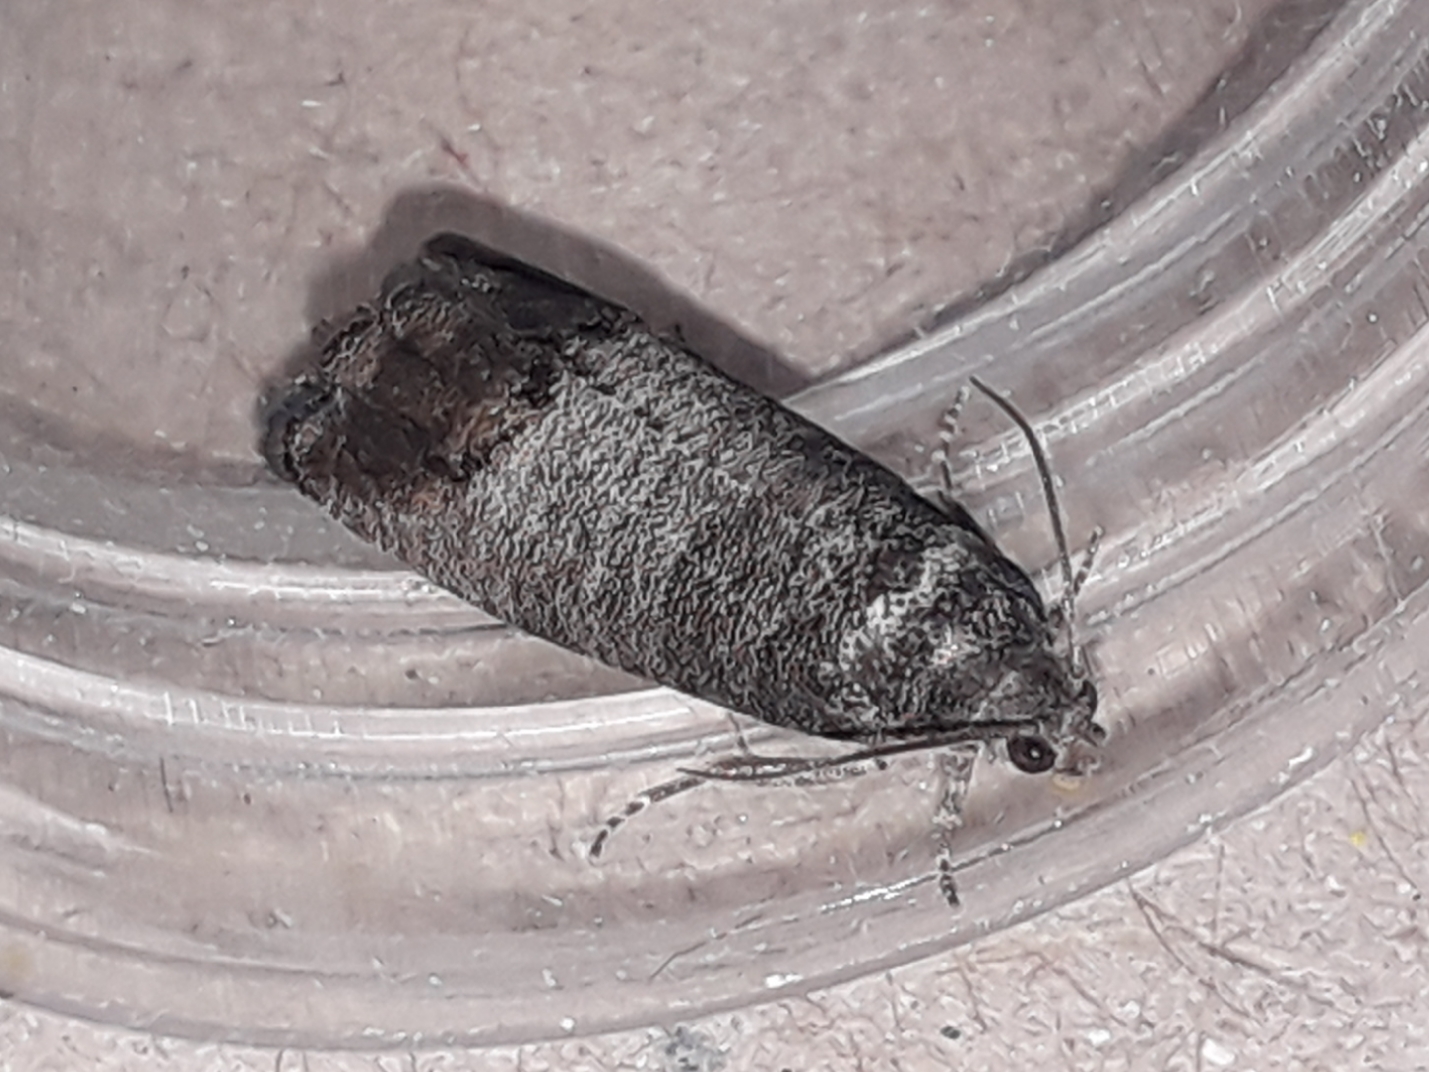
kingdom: Animalia
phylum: Arthropoda
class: Insecta
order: Lepidoptera
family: Tortricidae
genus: Cydia
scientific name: Cydia pomonella
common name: Codling moth
